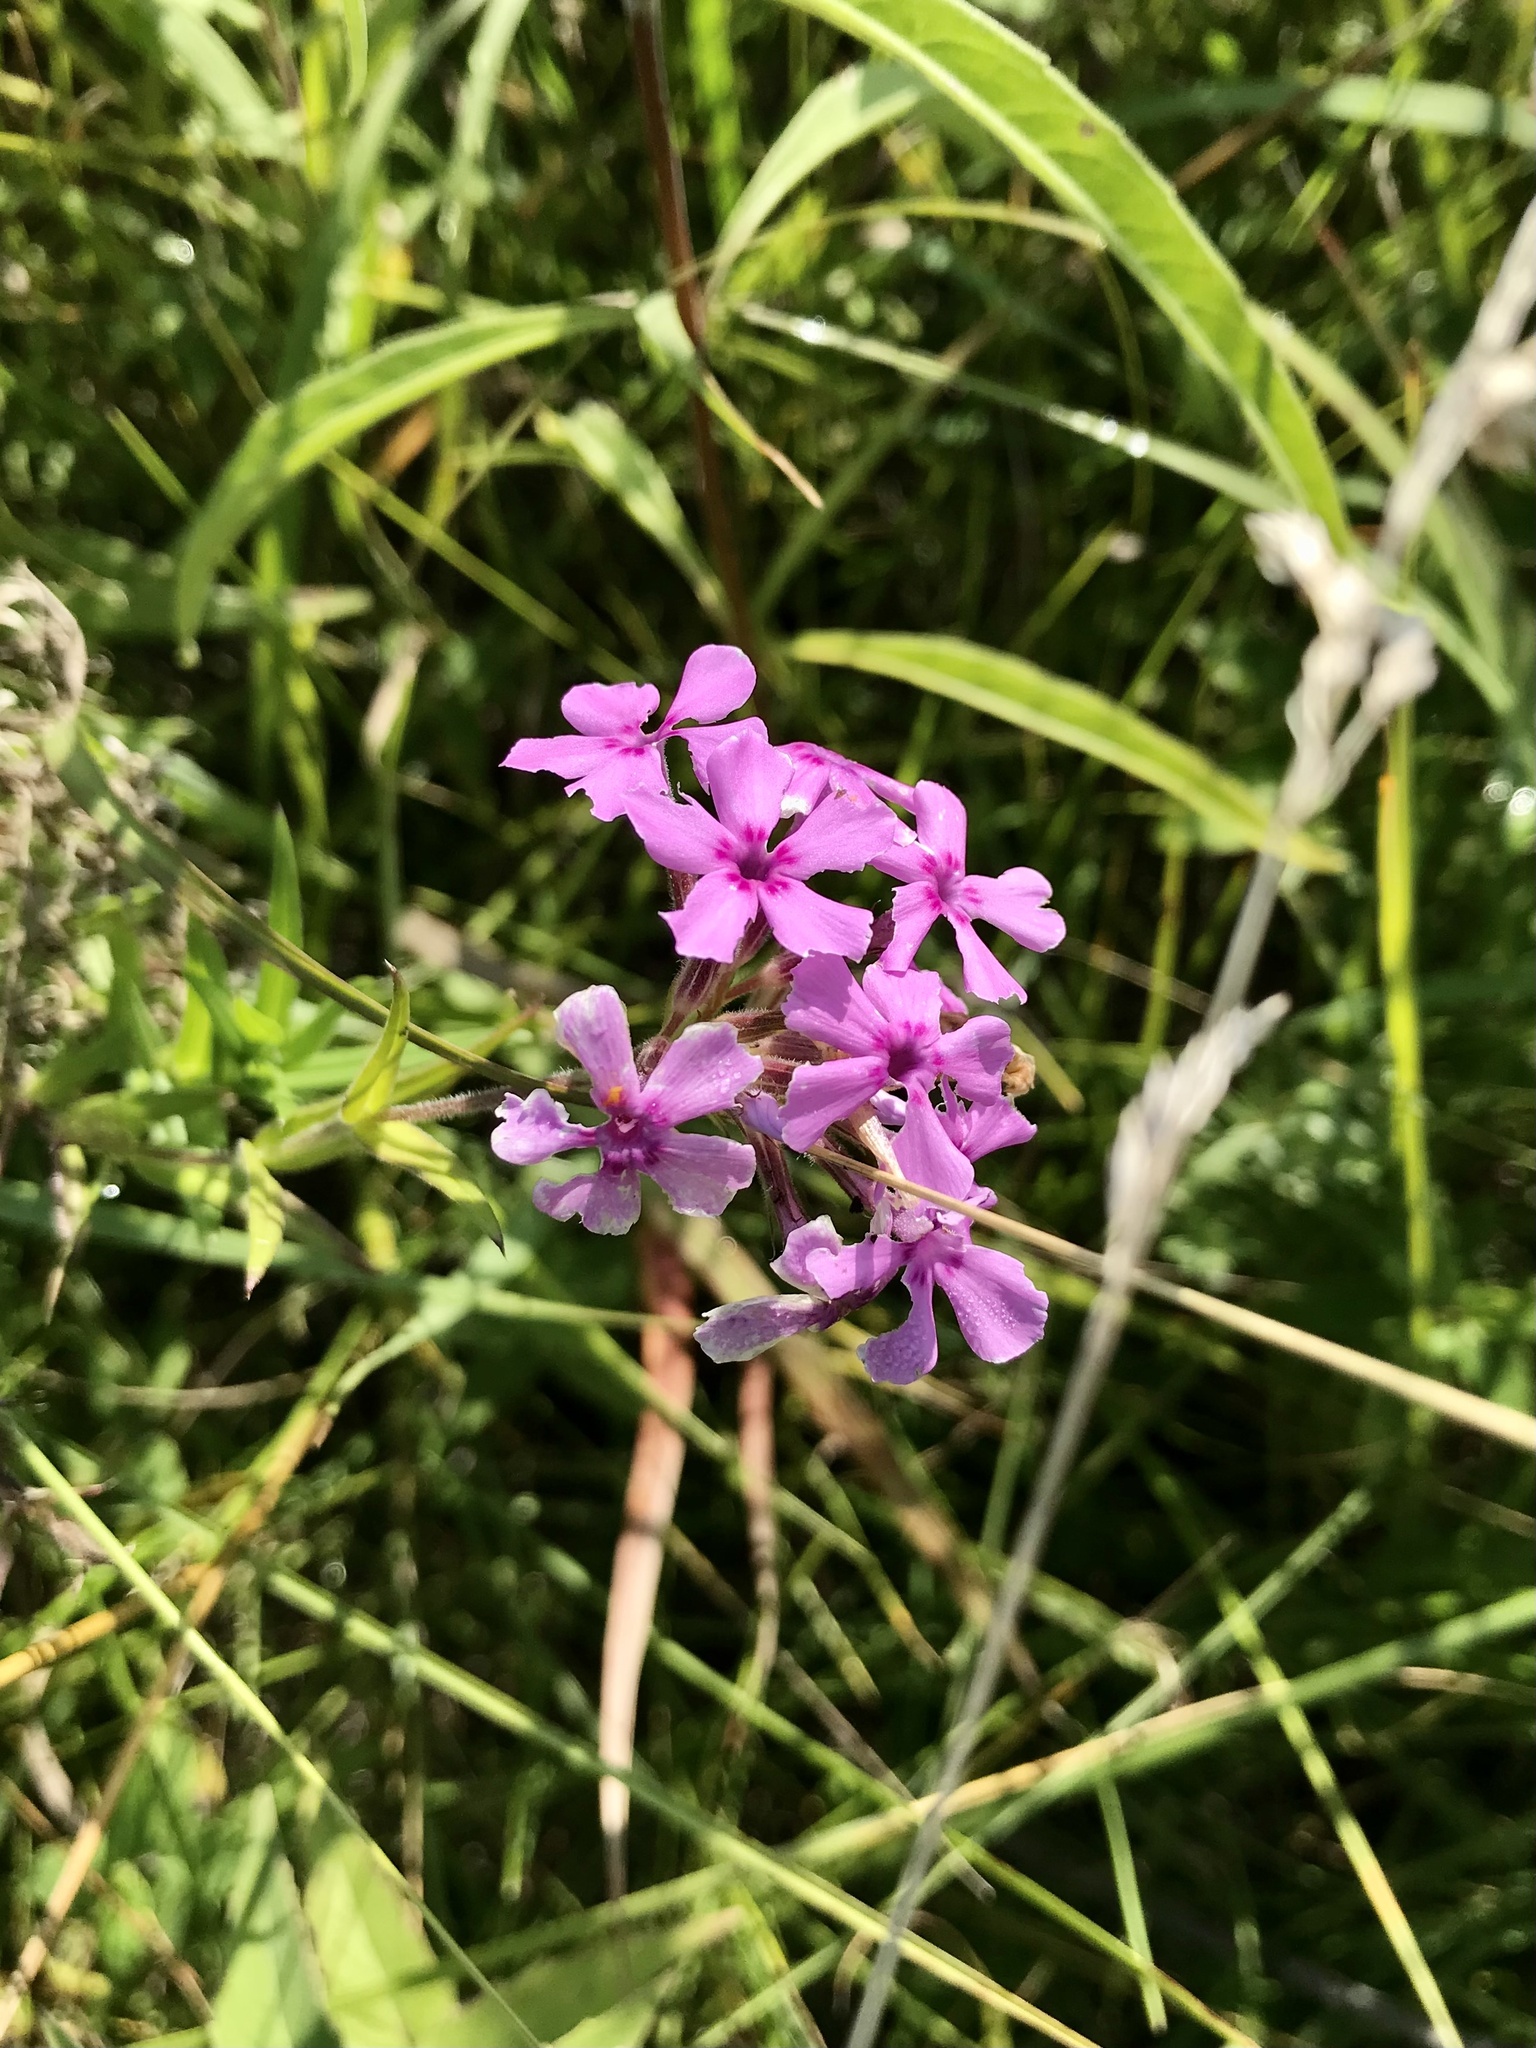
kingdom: Plantae
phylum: Tracheophyta
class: Magnoliopsida
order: Ericales
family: Polemoniaceae
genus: Phlox
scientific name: Phlox pilosa
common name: Prairie phlox
